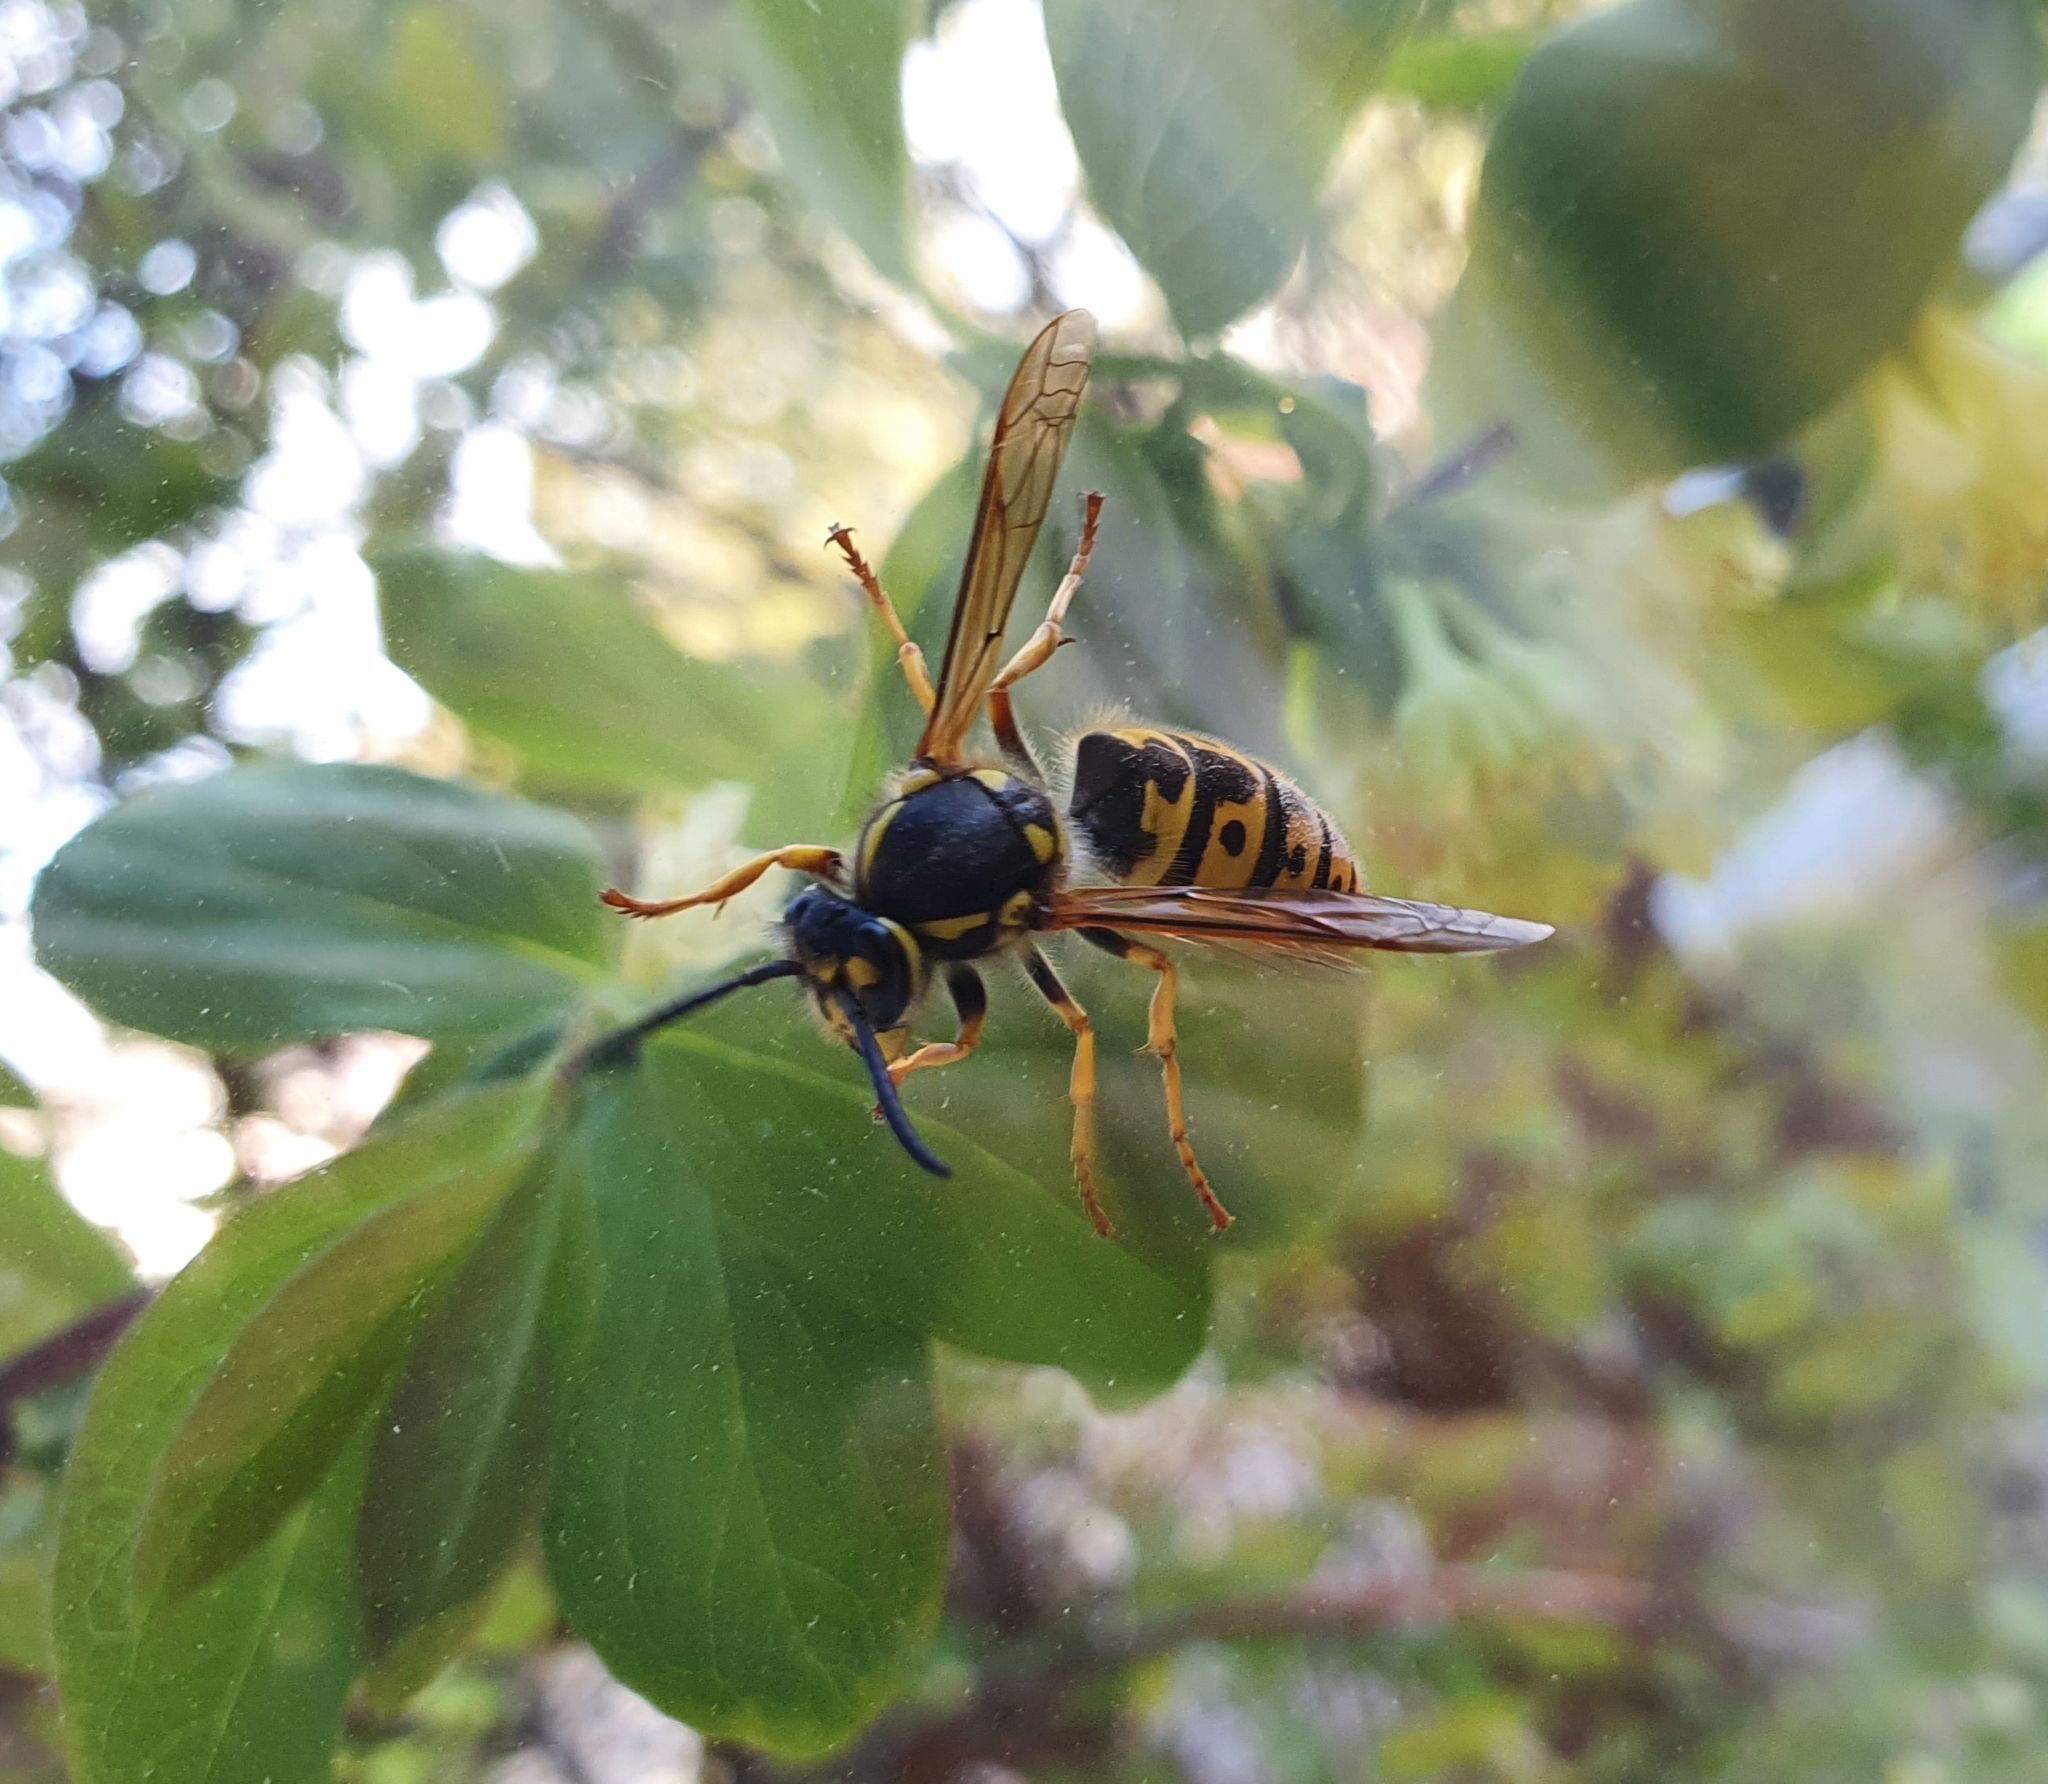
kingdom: Animalia
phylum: Arthropoda
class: Insecta
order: Hymenoptera
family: Vespidae
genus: Vespula
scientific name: Vespula germanica
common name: German wasp
